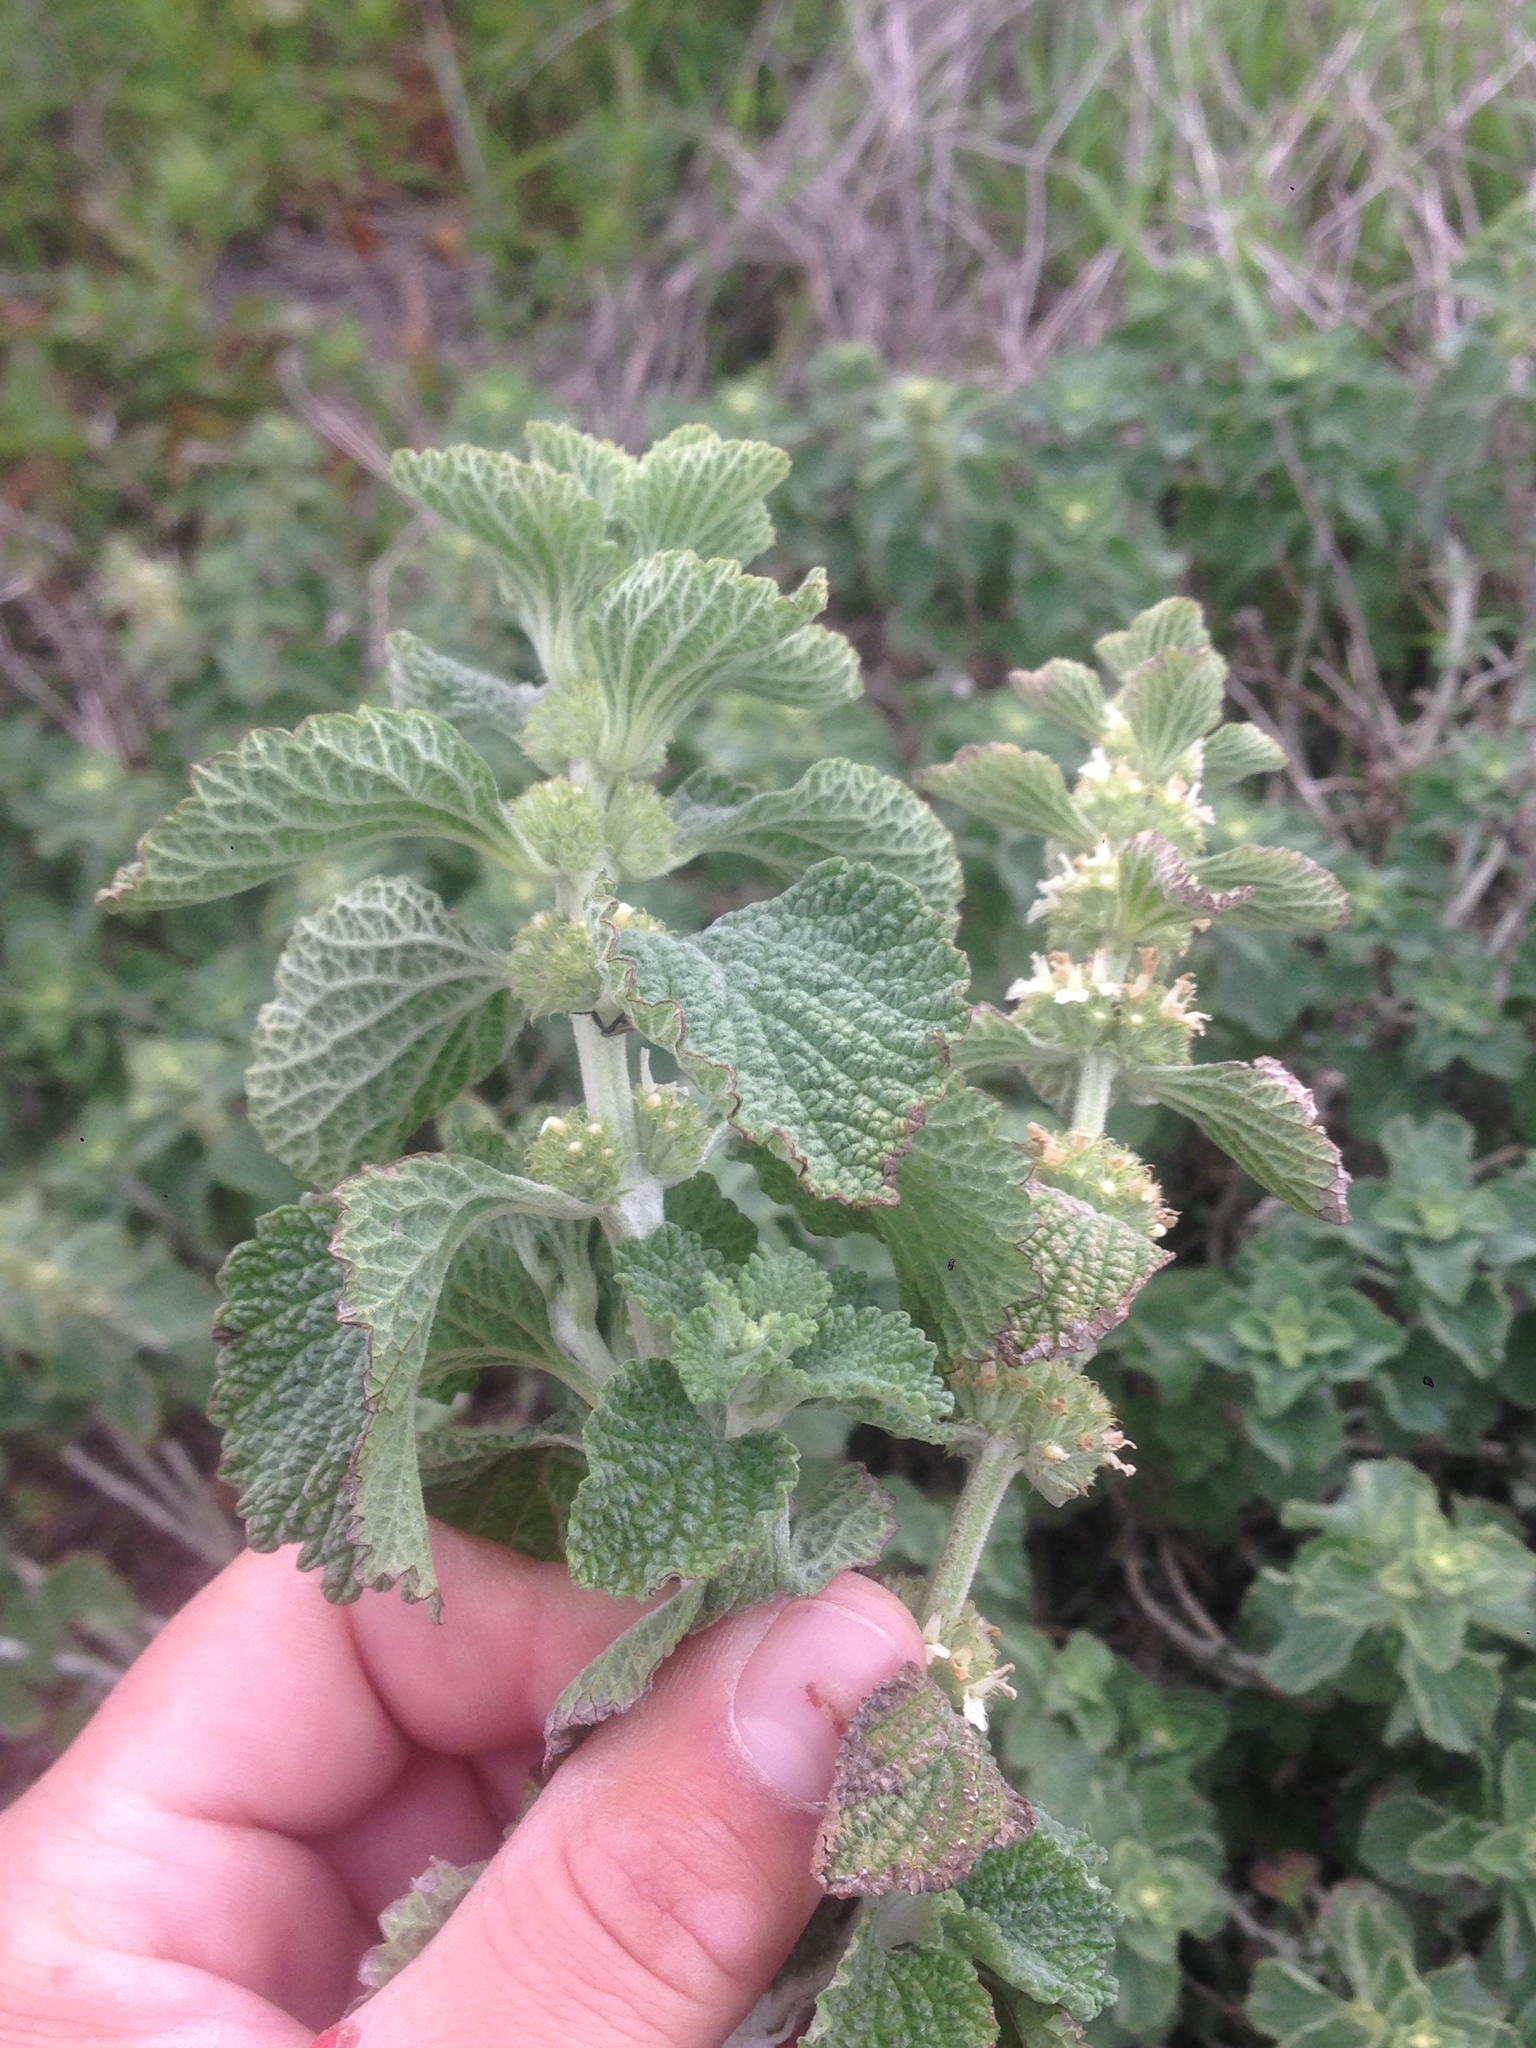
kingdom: Plantae
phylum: Tracheophyta
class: Magnoliopsida
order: Lamiales
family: Lamiaceae
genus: Marrubium
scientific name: Marrubium vulgare
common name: Horehound
